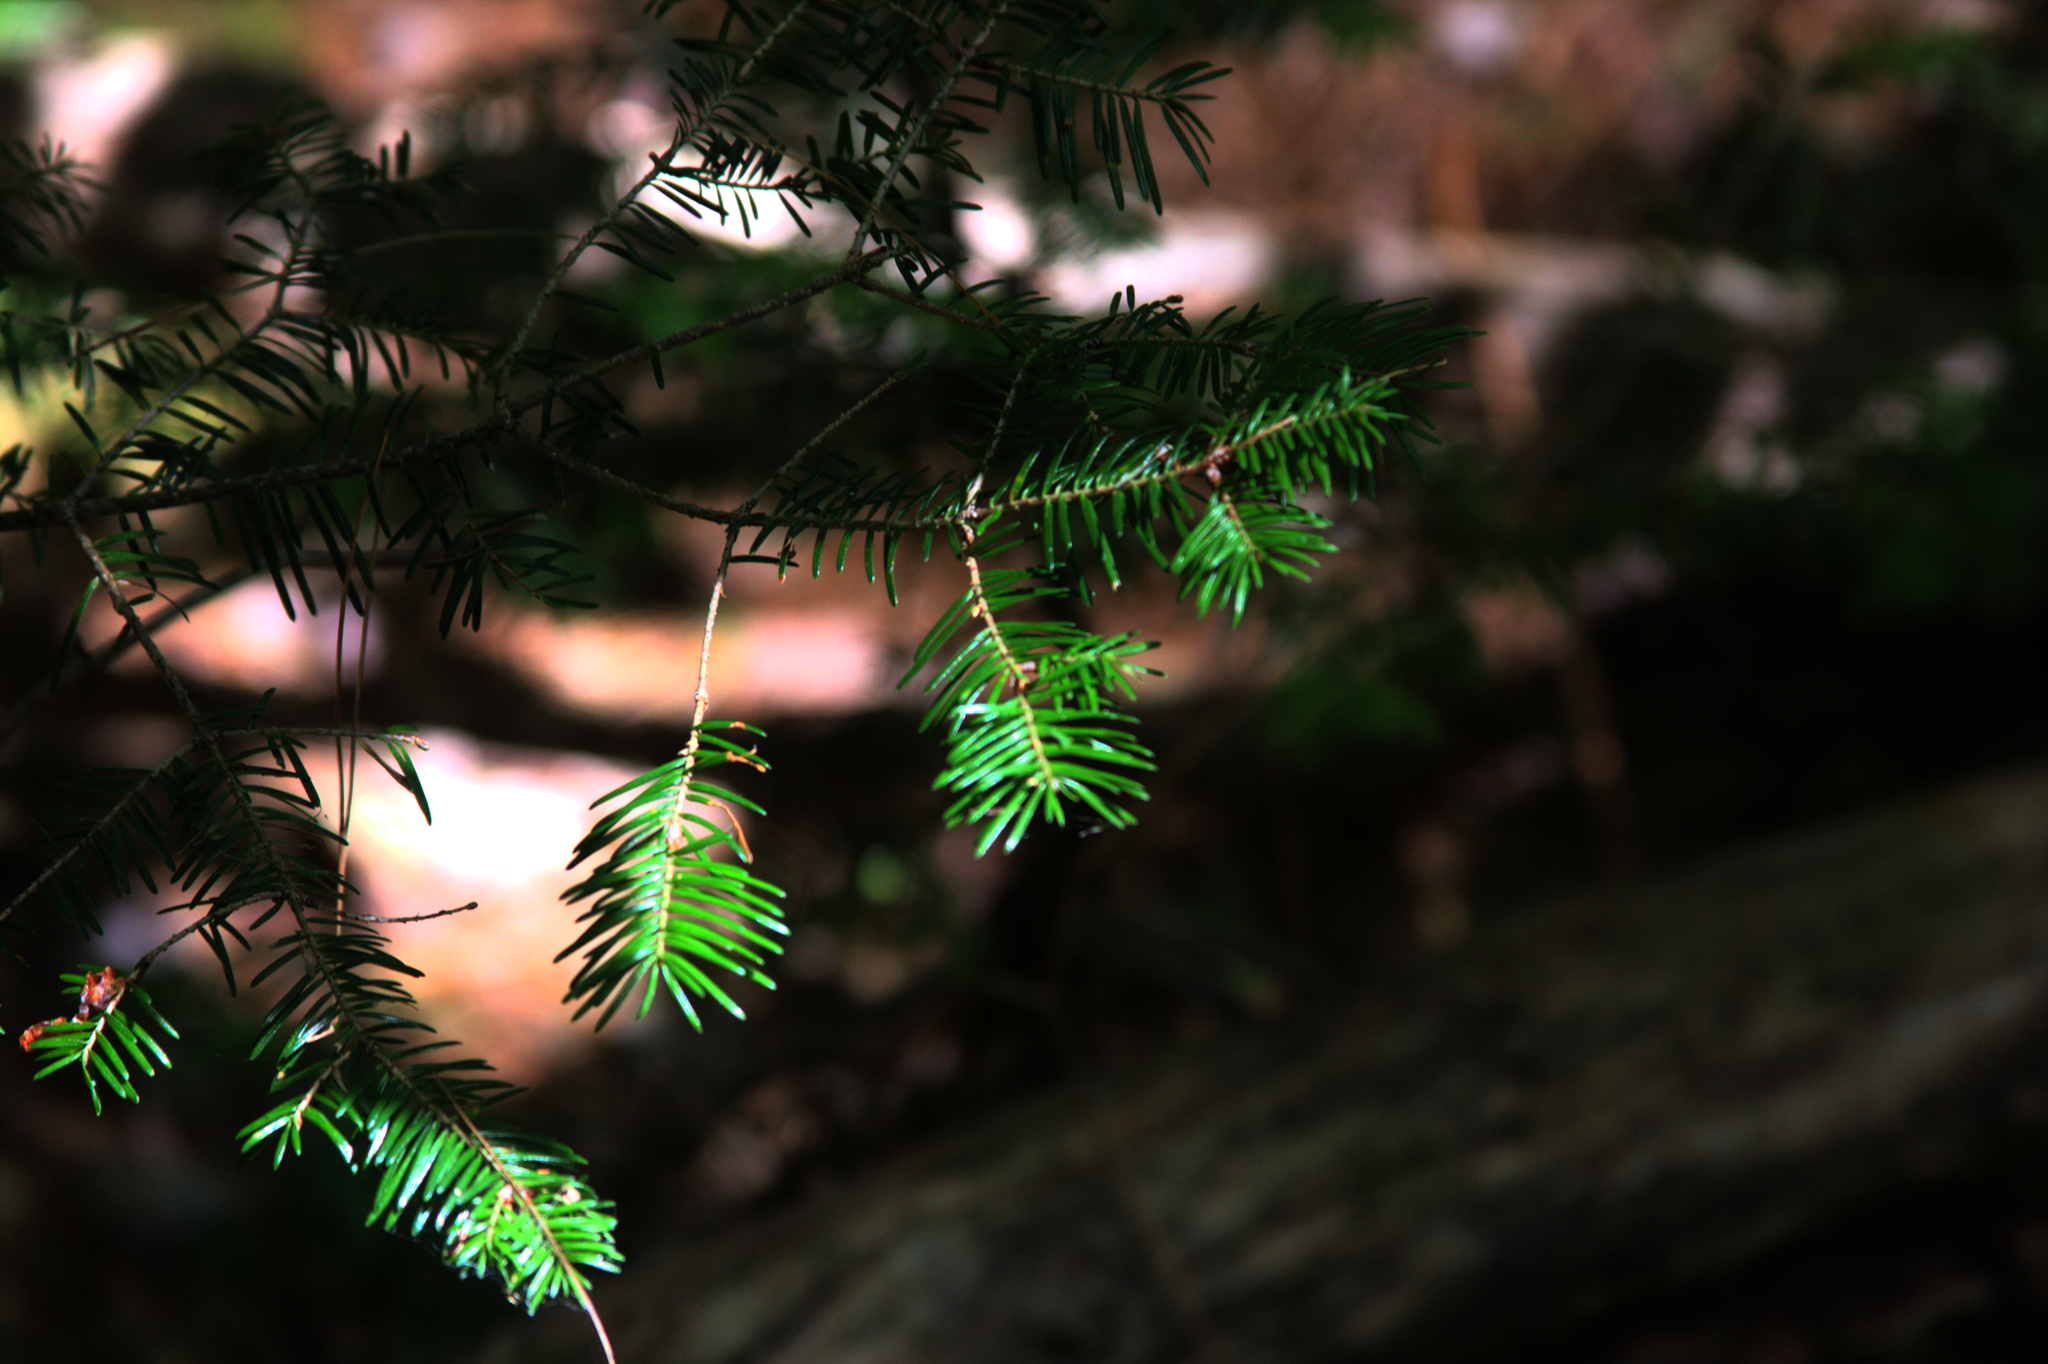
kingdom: Plantae
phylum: Tracheophyta
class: Pinopsida
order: Pinales
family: Pinaceae
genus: Abies
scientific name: Abies balsamea
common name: Balsam fir
